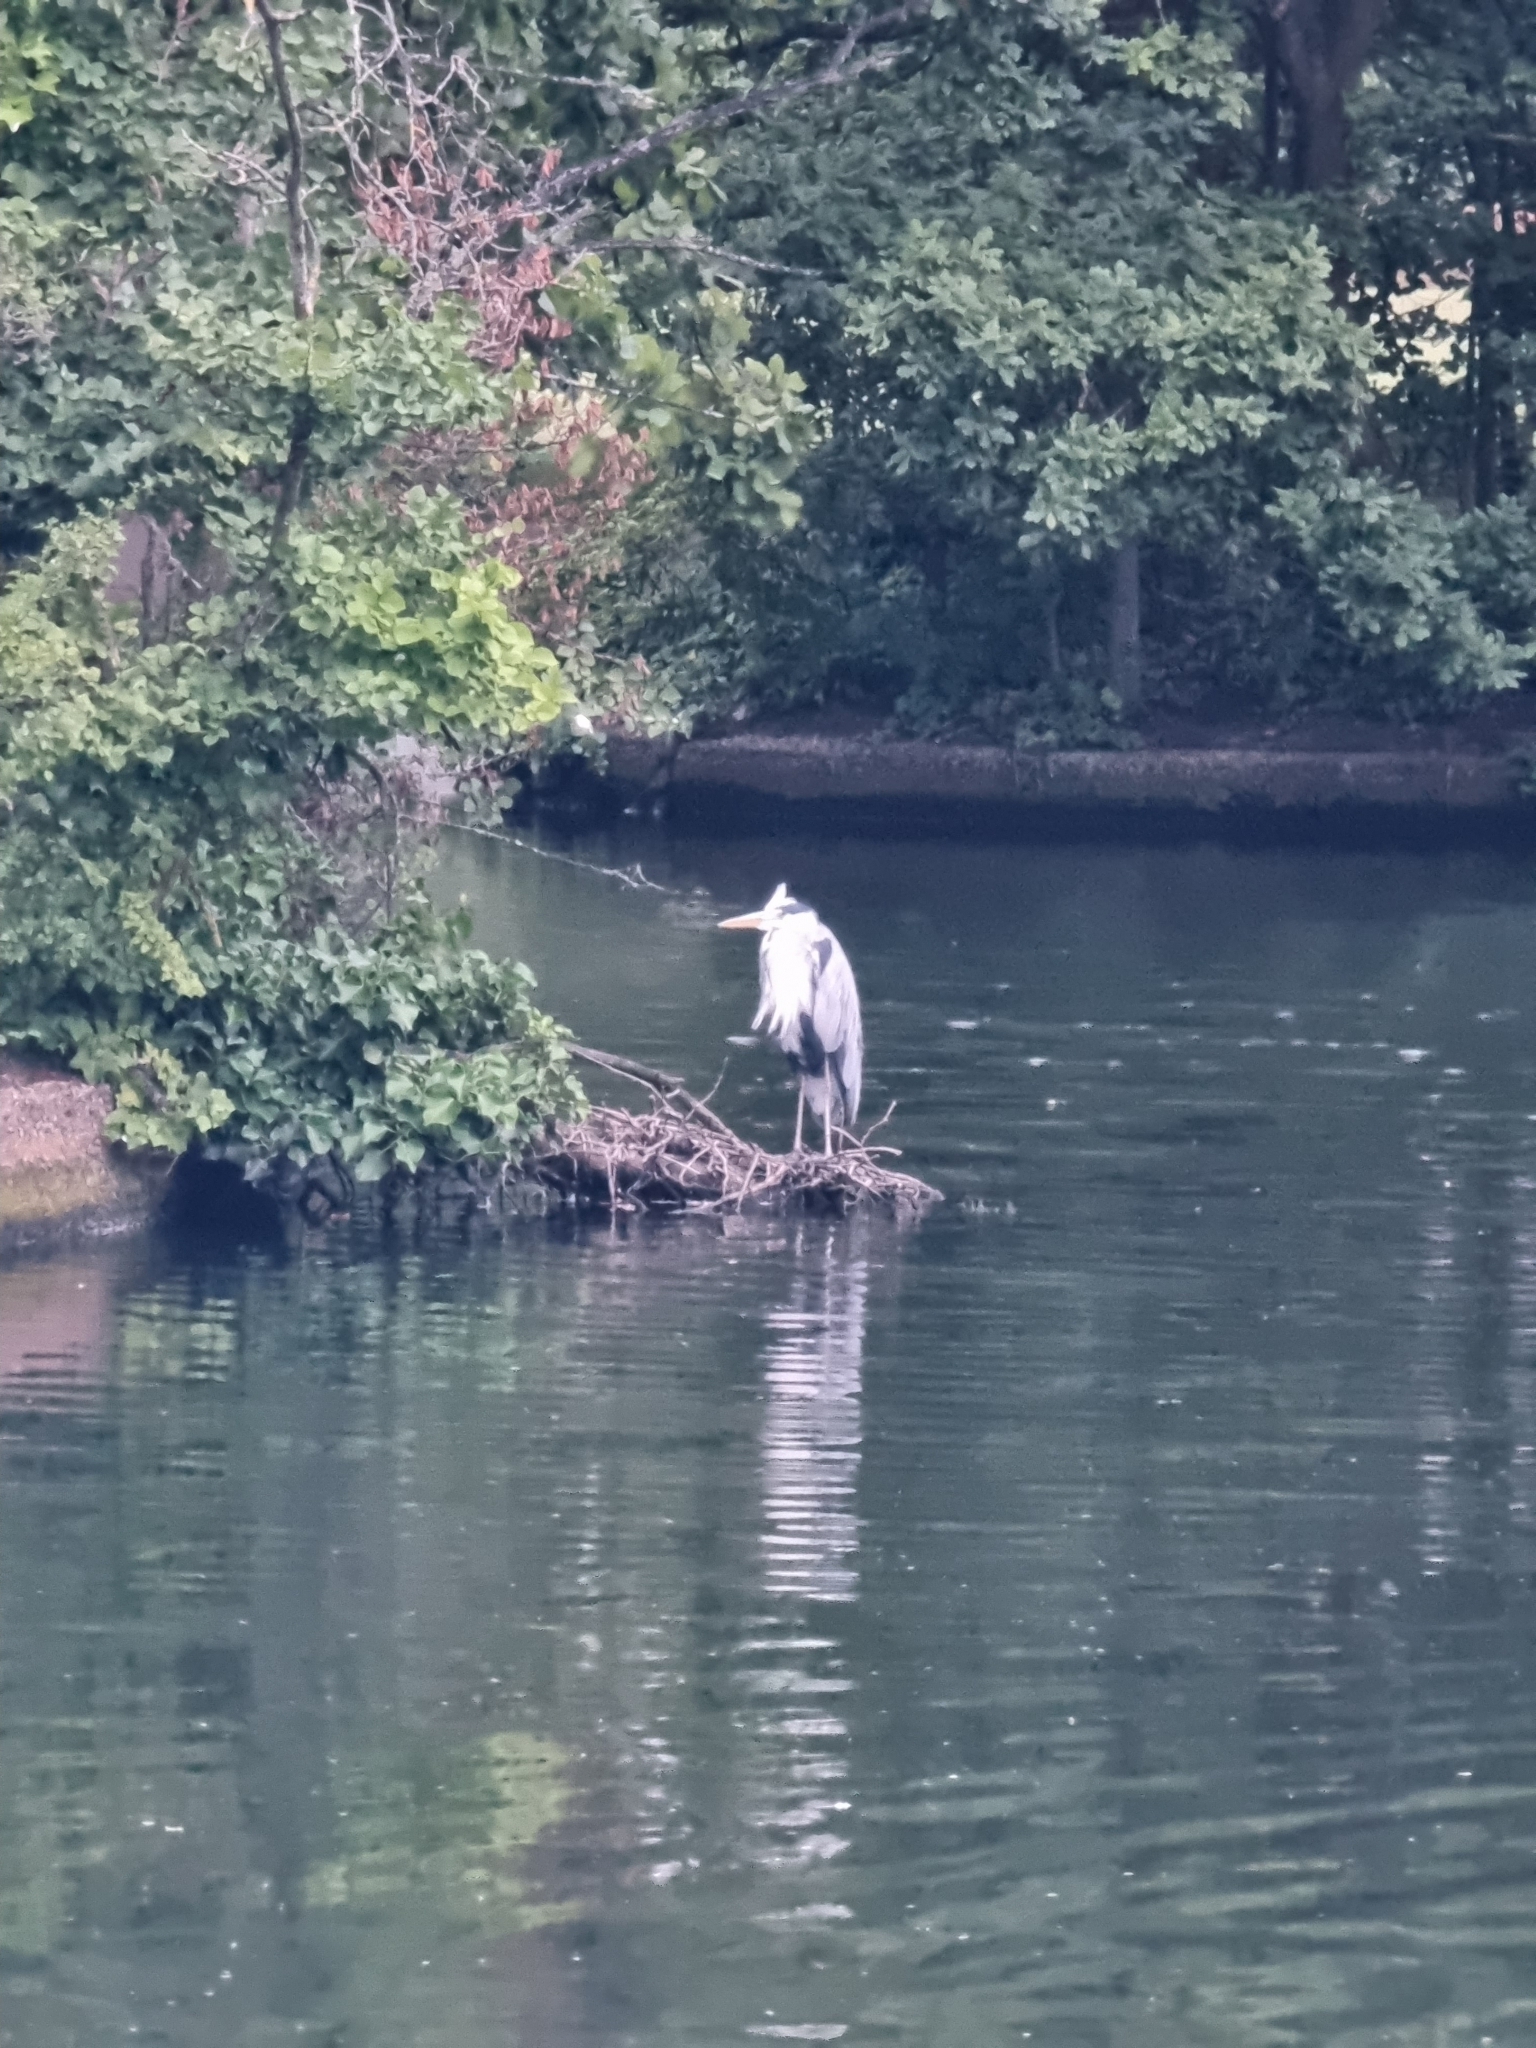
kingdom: Animalia
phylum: Chordata
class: Aves
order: Pelecaniformes
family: Ardeidae
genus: Ardea
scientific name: Ardea cinerea
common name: Grey heron
